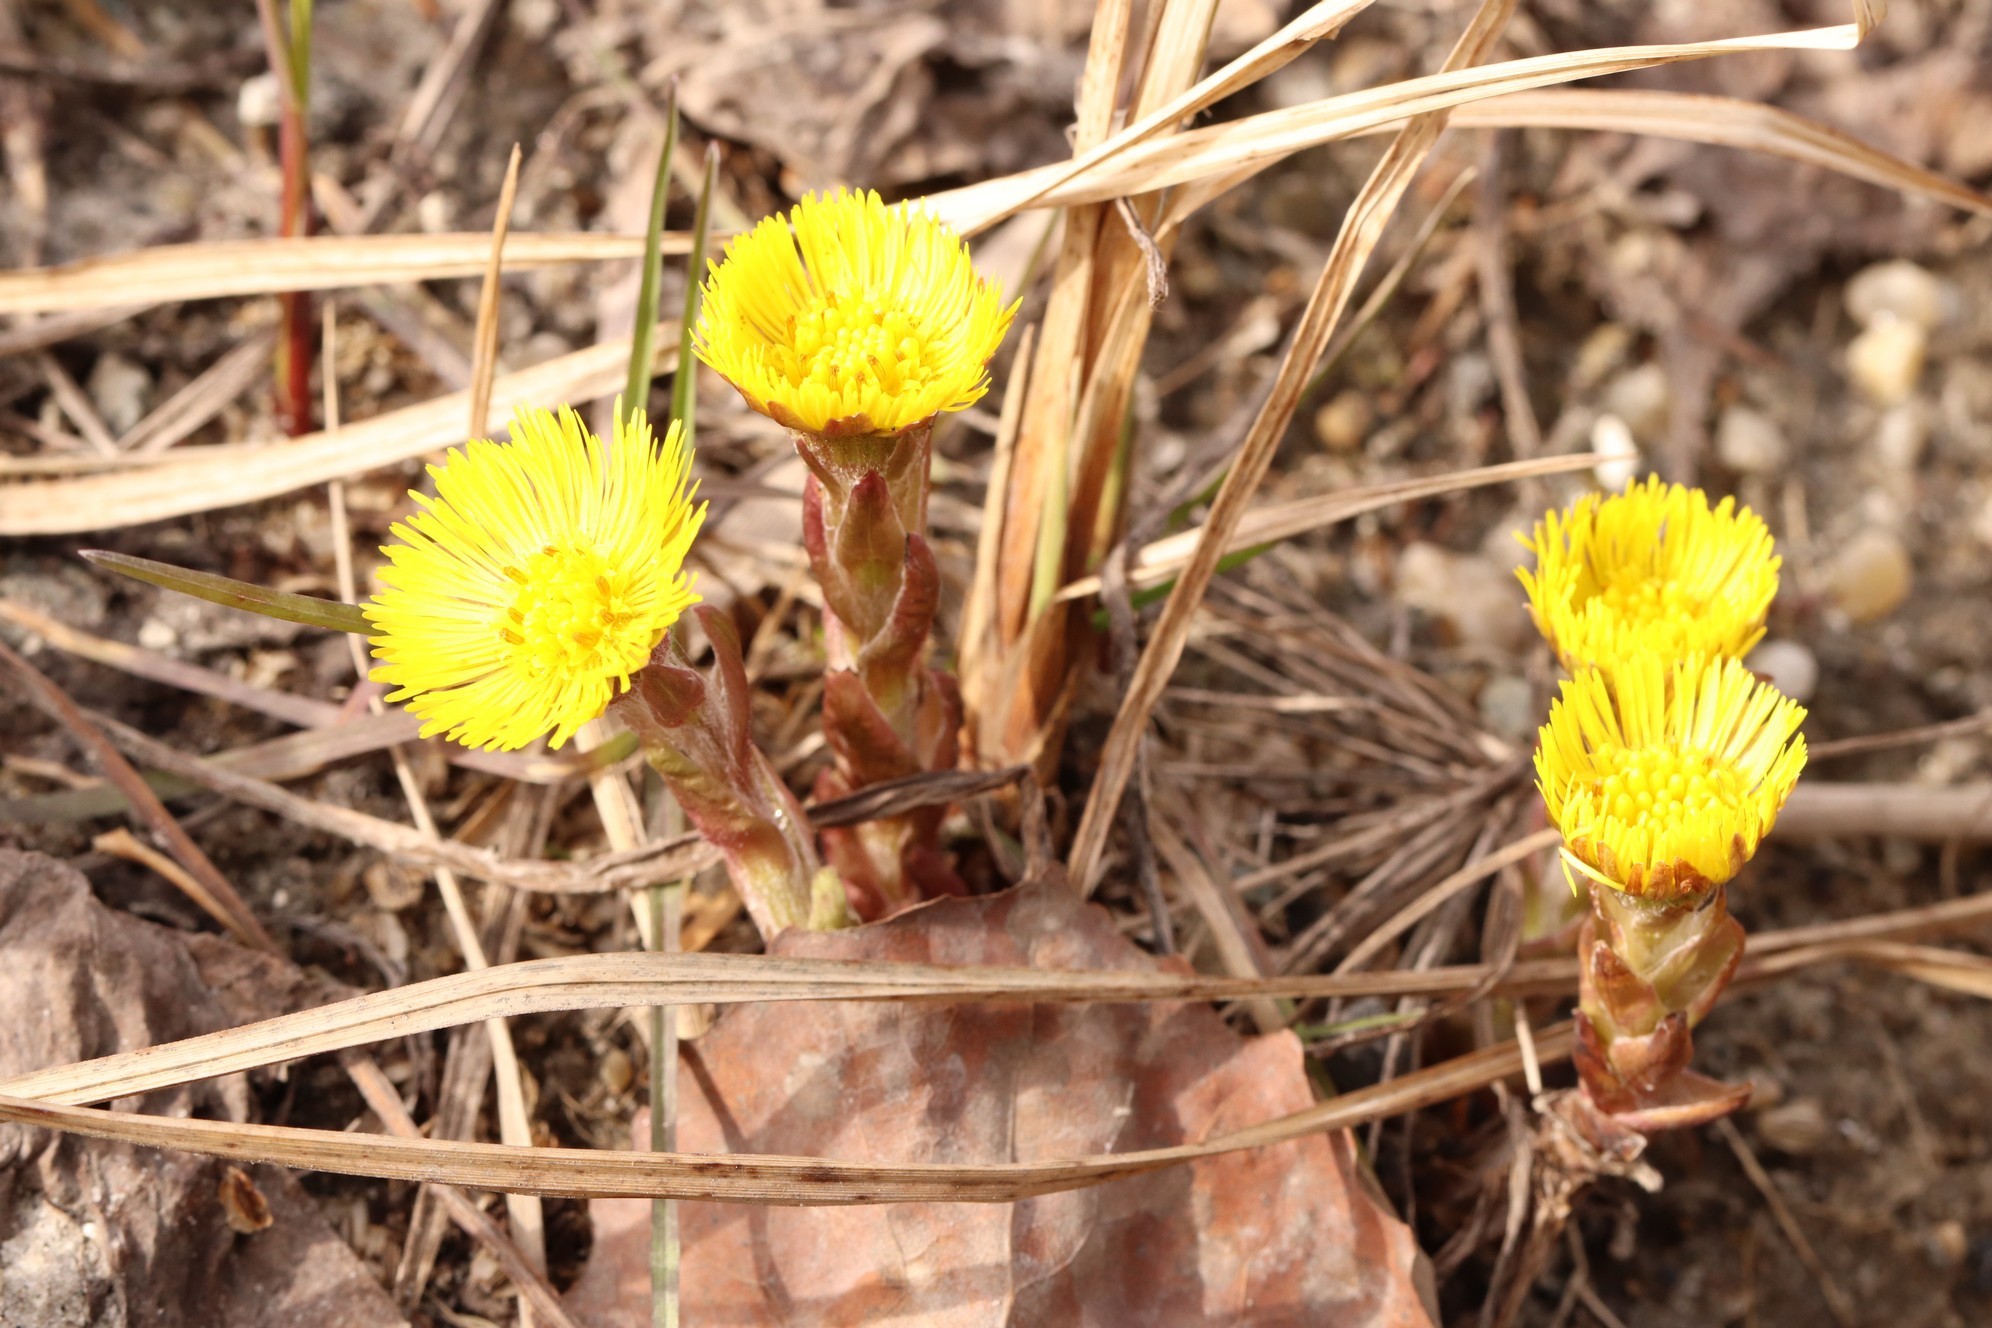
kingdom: Plantae
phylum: Tracheophyta
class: Magnoliopsida
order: Asterales
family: Asteraceae
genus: Tussilago
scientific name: Tussilago farfara
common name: Coltsfoot
